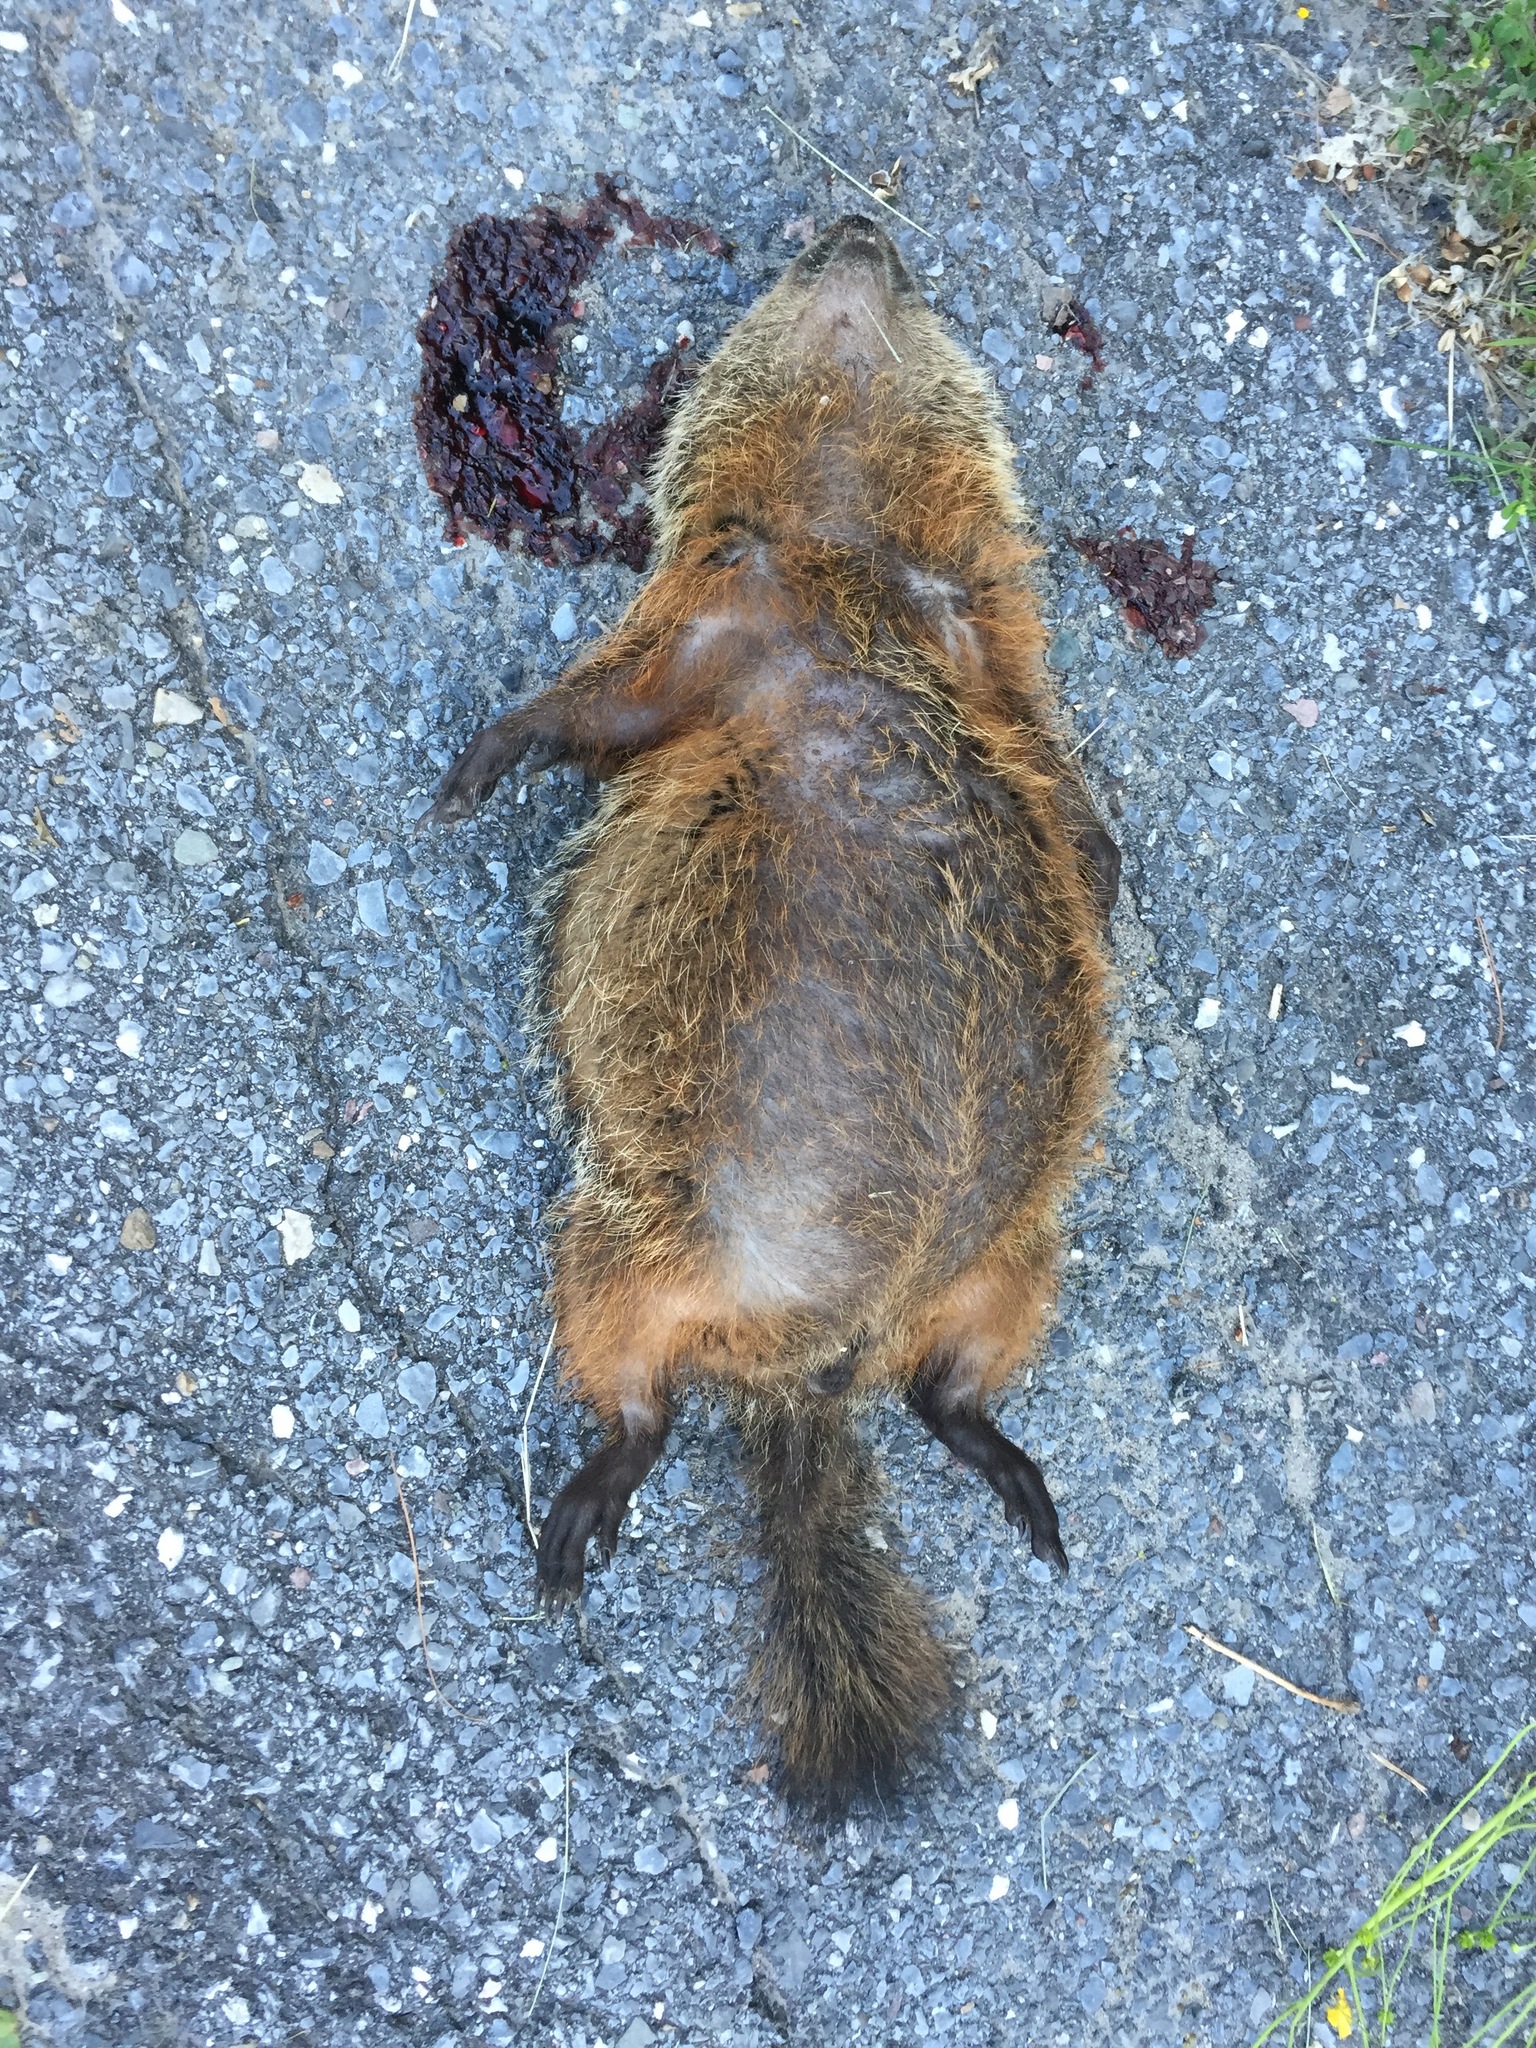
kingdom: Animalia
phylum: Chordata
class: Mammalia
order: Rodentia
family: Sciuridae
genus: Marmota
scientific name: Marmota monax
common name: Groundhog
